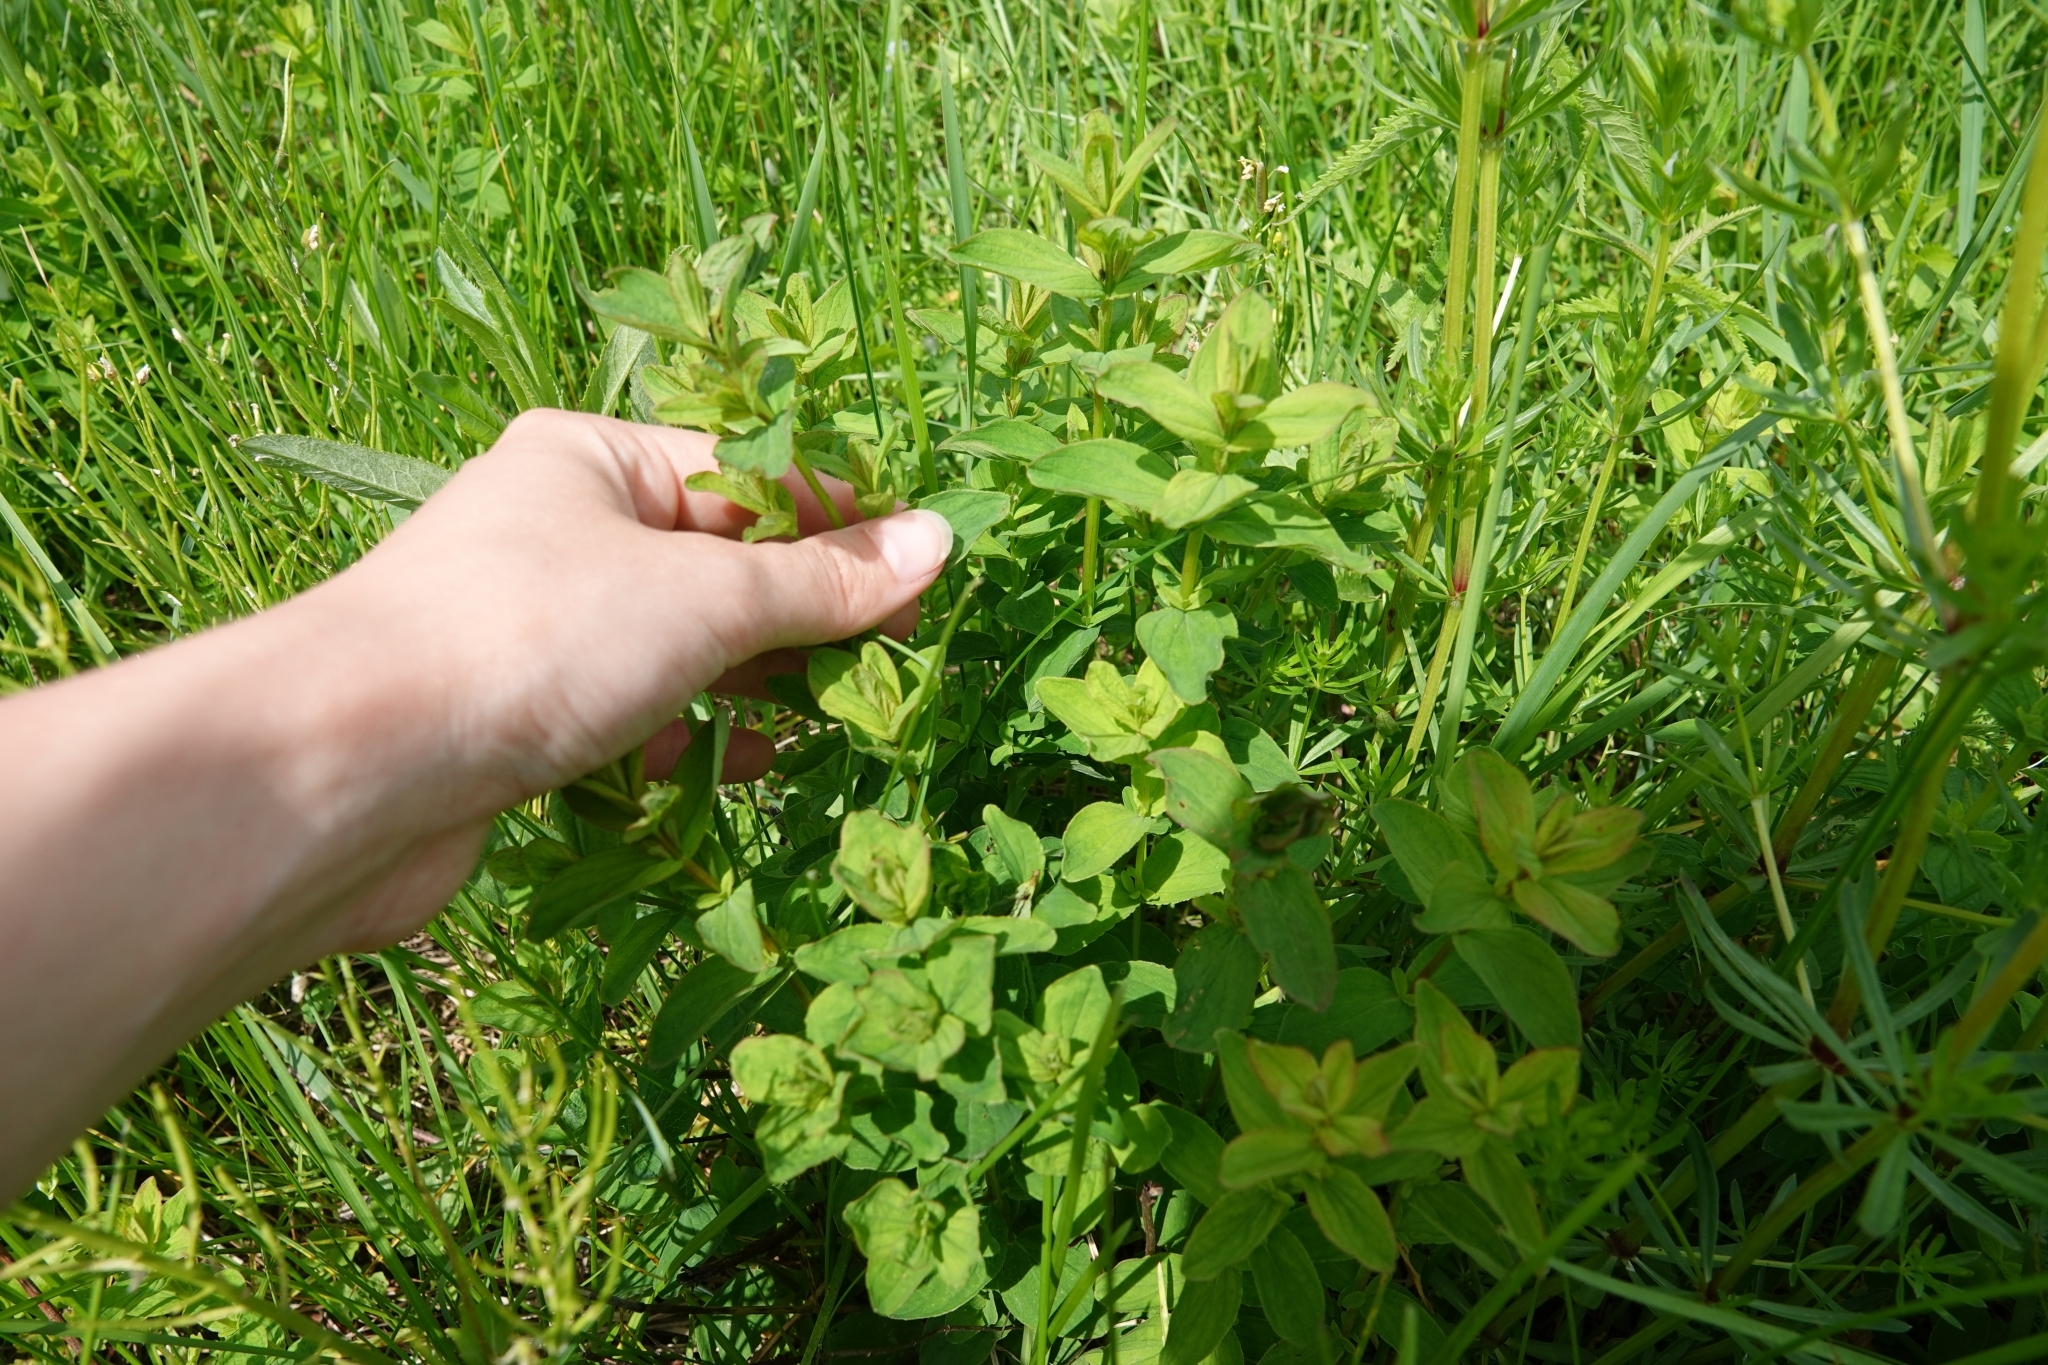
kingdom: Plantae
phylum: Tracheophyta
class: Magnoliopsida
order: Malpighiales
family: Hypericaceae
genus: Hypericum
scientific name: Hypericum maculatum
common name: Imperforate st. john's-wort
